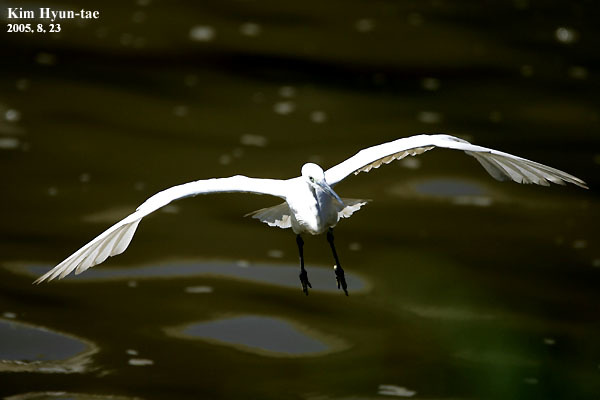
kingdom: Animalia
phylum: Chordata
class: Aves
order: Pelecaniformes
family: Ardeidae
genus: Egretta
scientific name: Egretta garzetta
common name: Little egret
